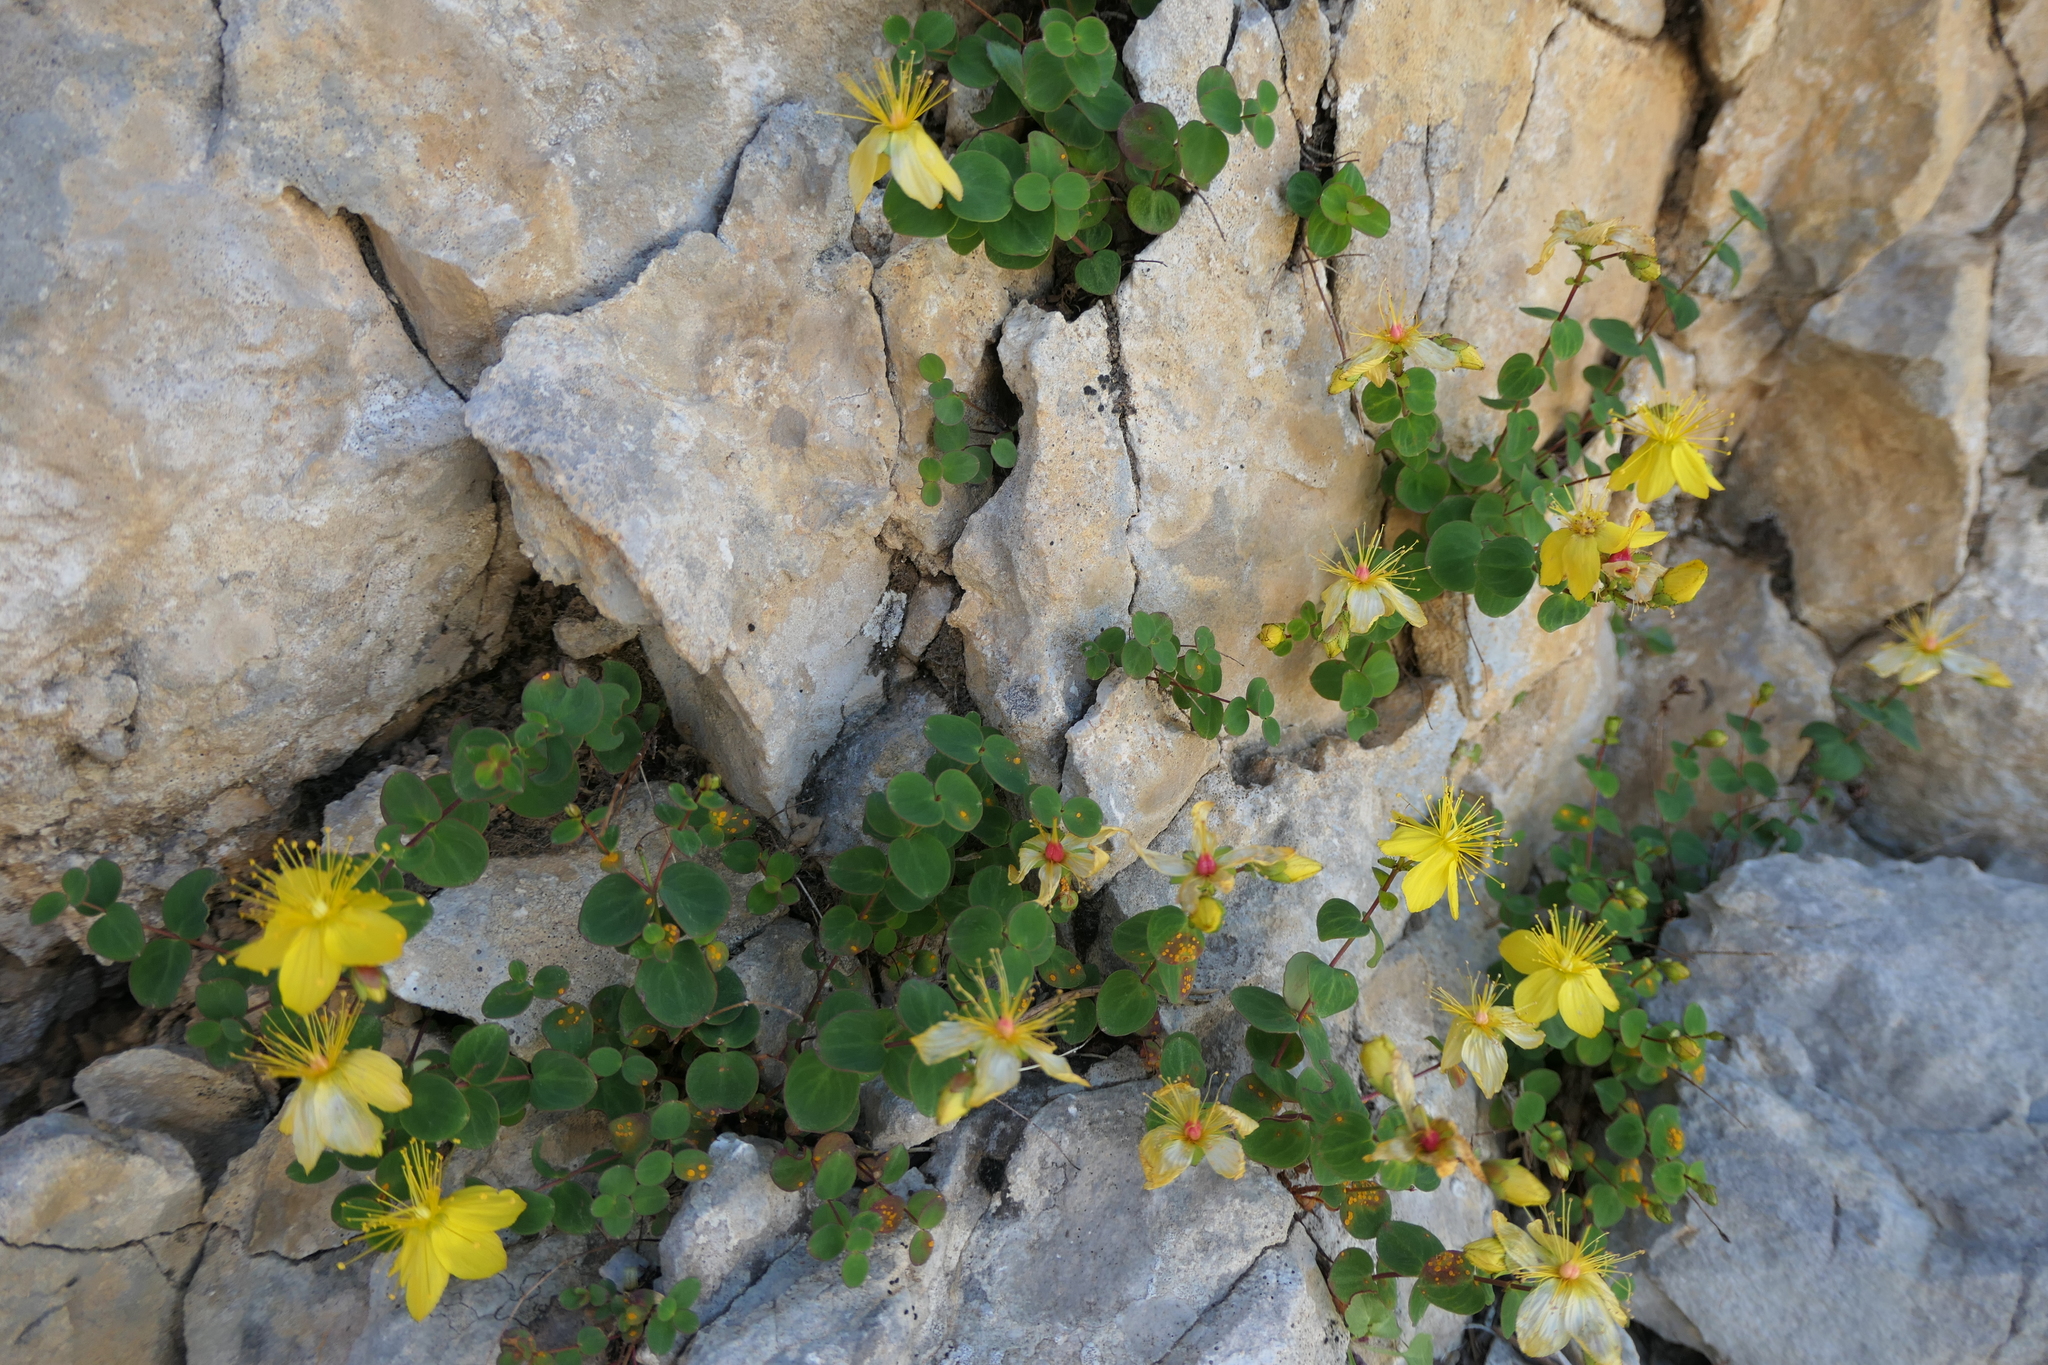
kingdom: Plantae
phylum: Tracheophyta
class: Magnoliopsida
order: Malpighiales
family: Hypericaceae
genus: Hypericum
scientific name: Hypericum nummularium
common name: Round-leaved st john's-wort
